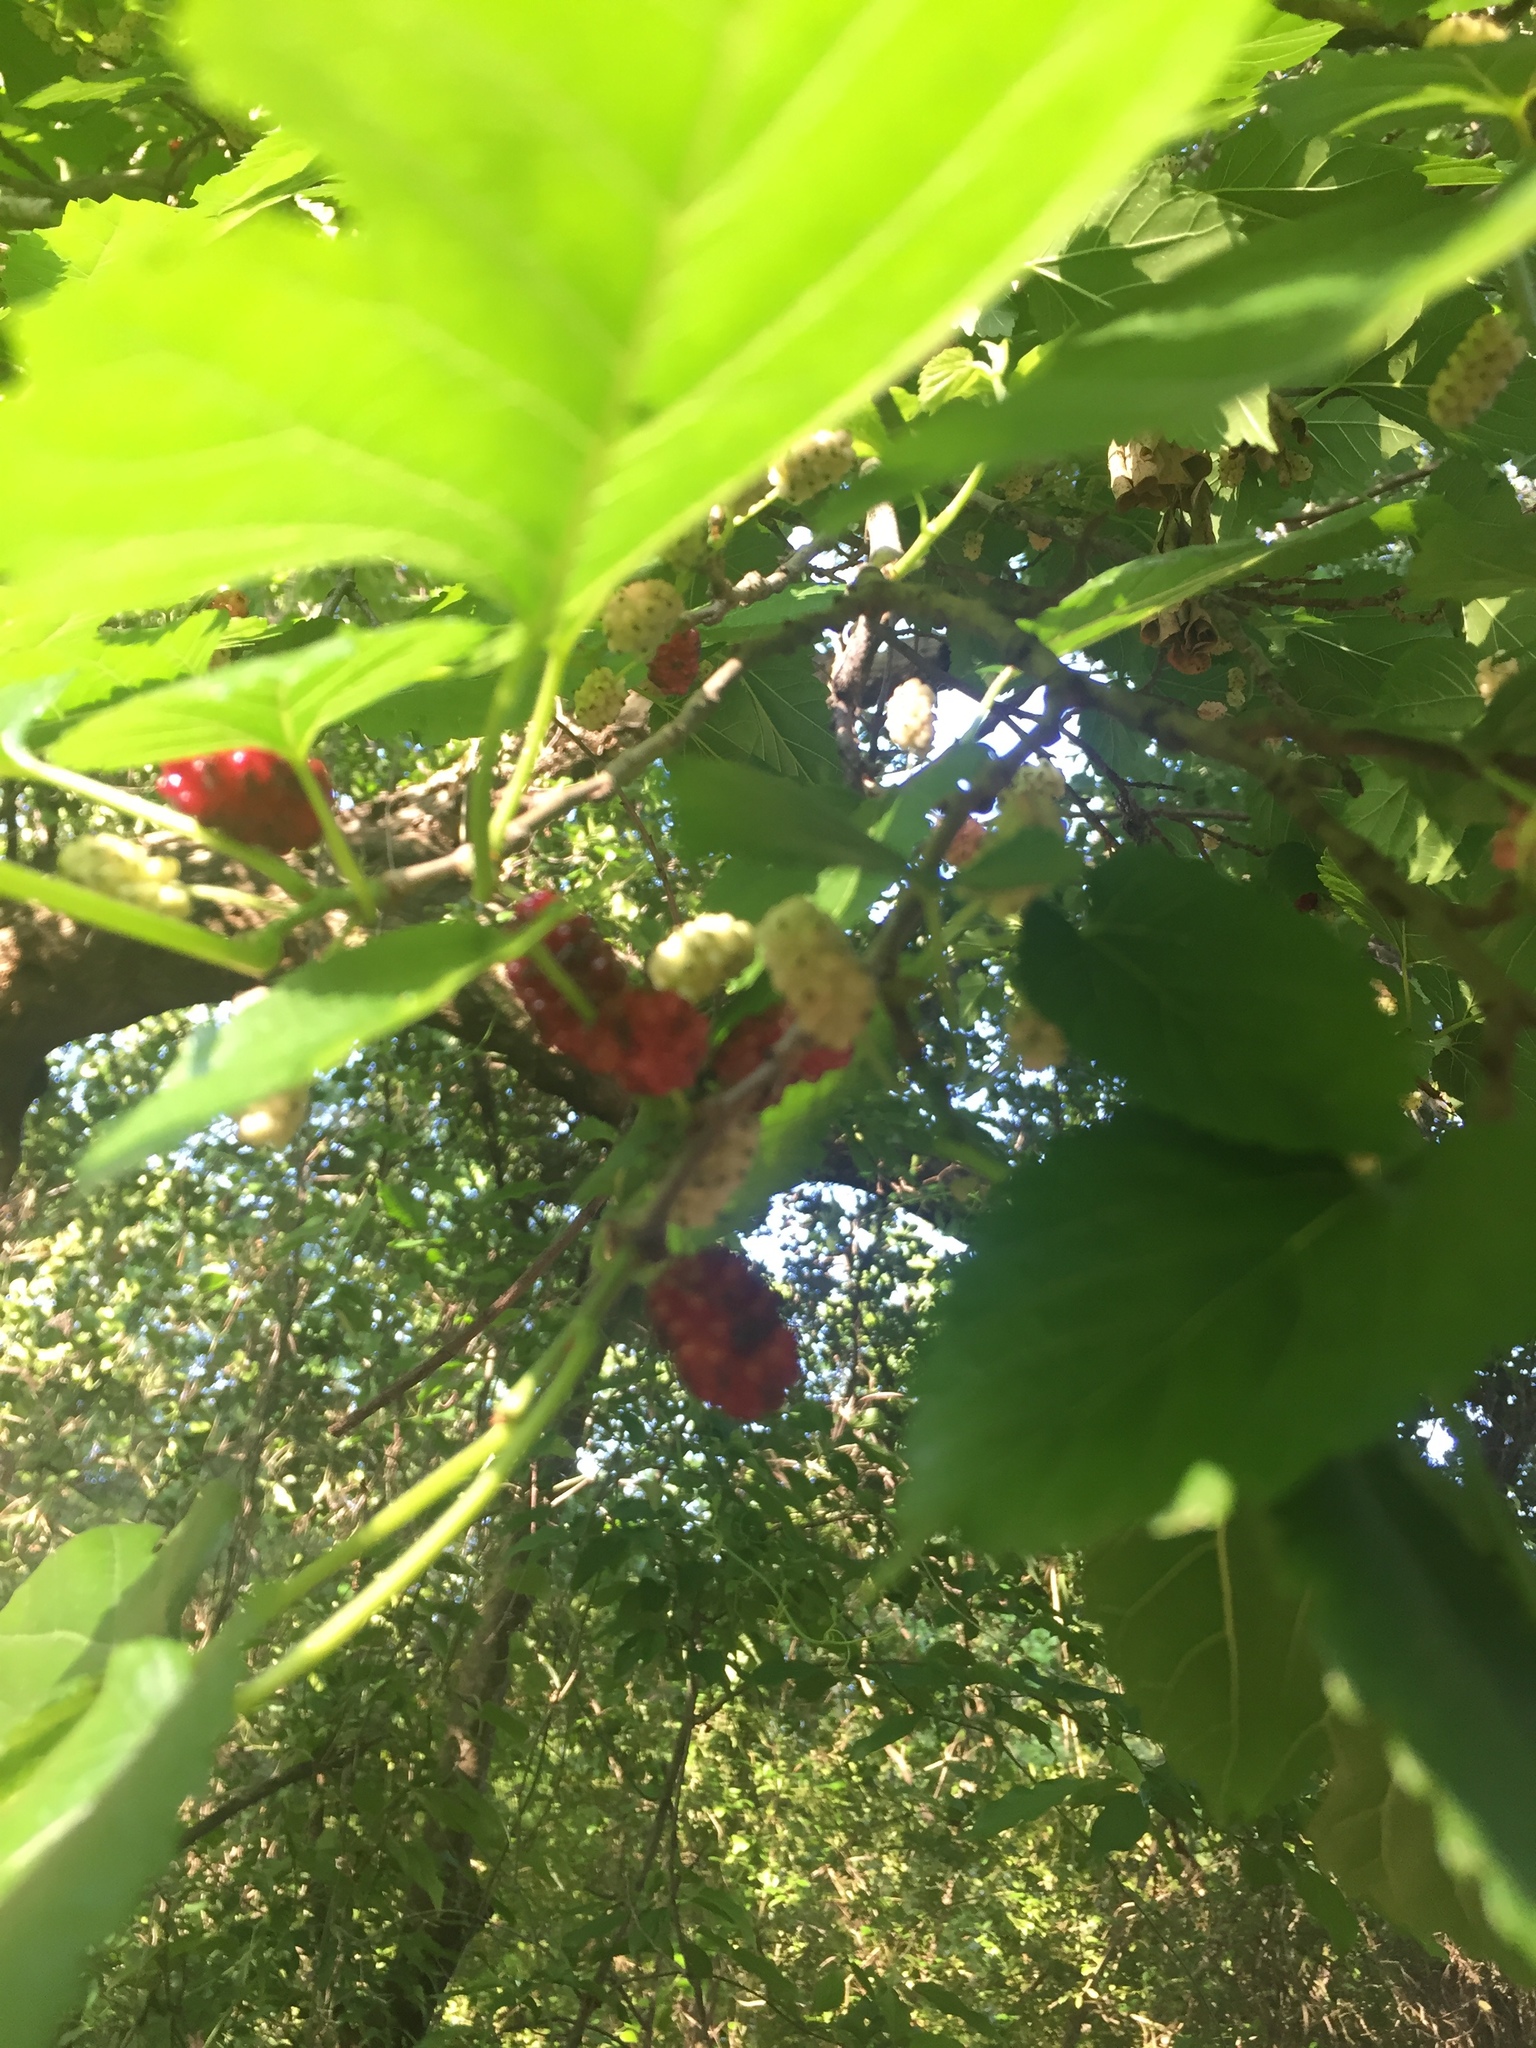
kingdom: Plantae
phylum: Tracheophyta
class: Magnoliopsida
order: Rosales
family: Moraceae
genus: Morus
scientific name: Morus nigra
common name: Black mulberry
